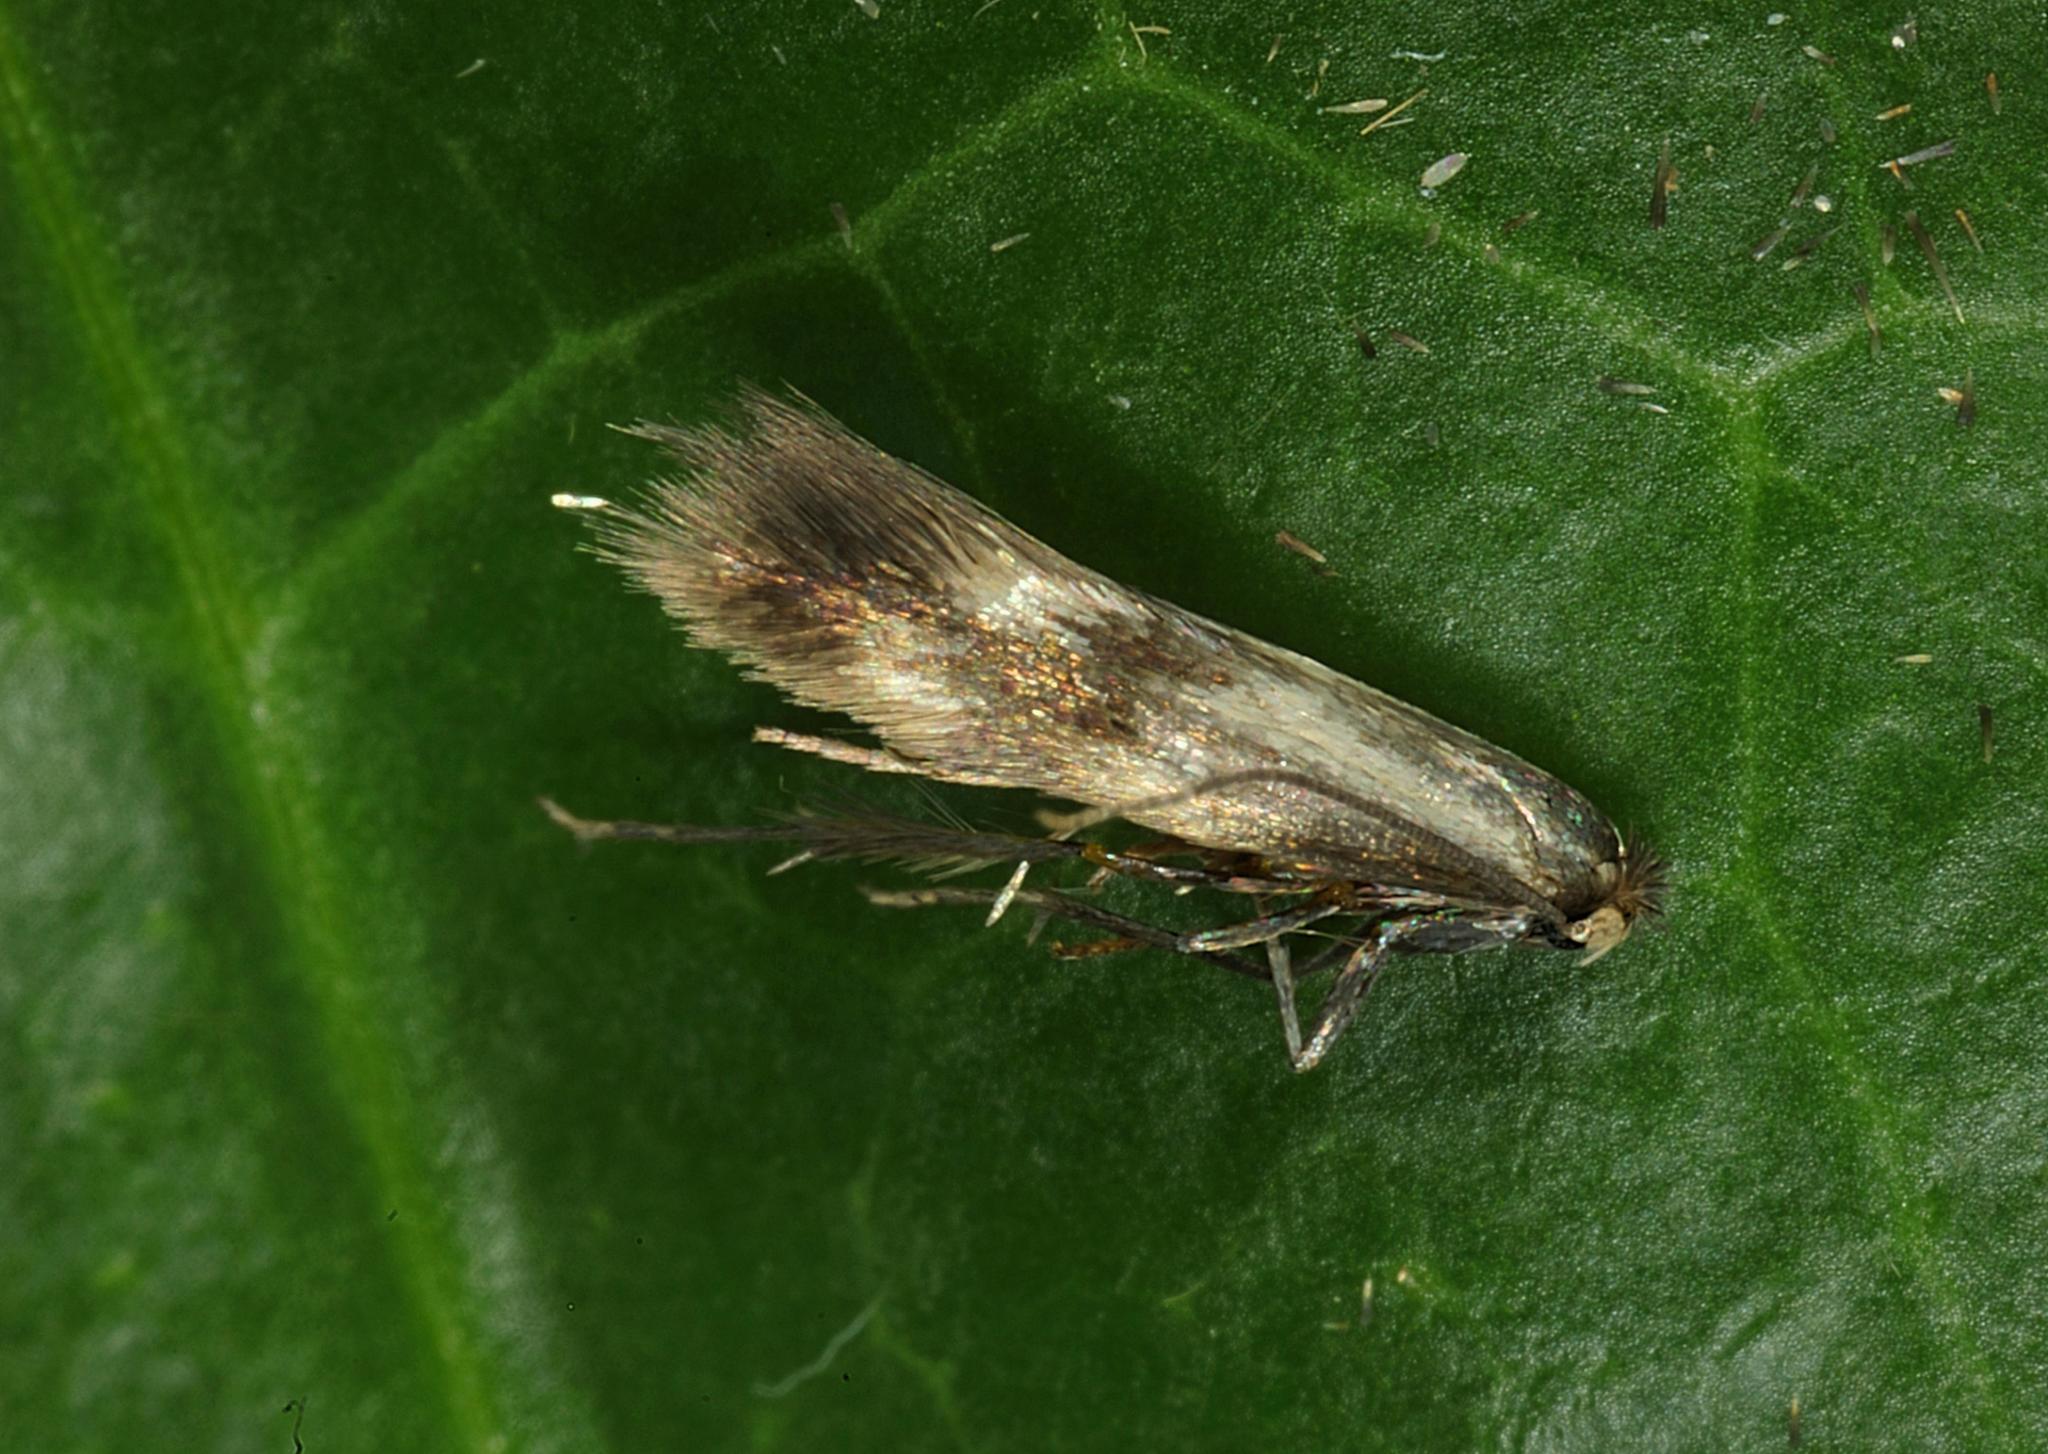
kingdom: Animalia
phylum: Arthropoda
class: Insecta
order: Lepidoptera
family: Bucculatricidae
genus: Bucculatrix
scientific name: Bucculatrix nigricomella
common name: Daisy bent-wing
